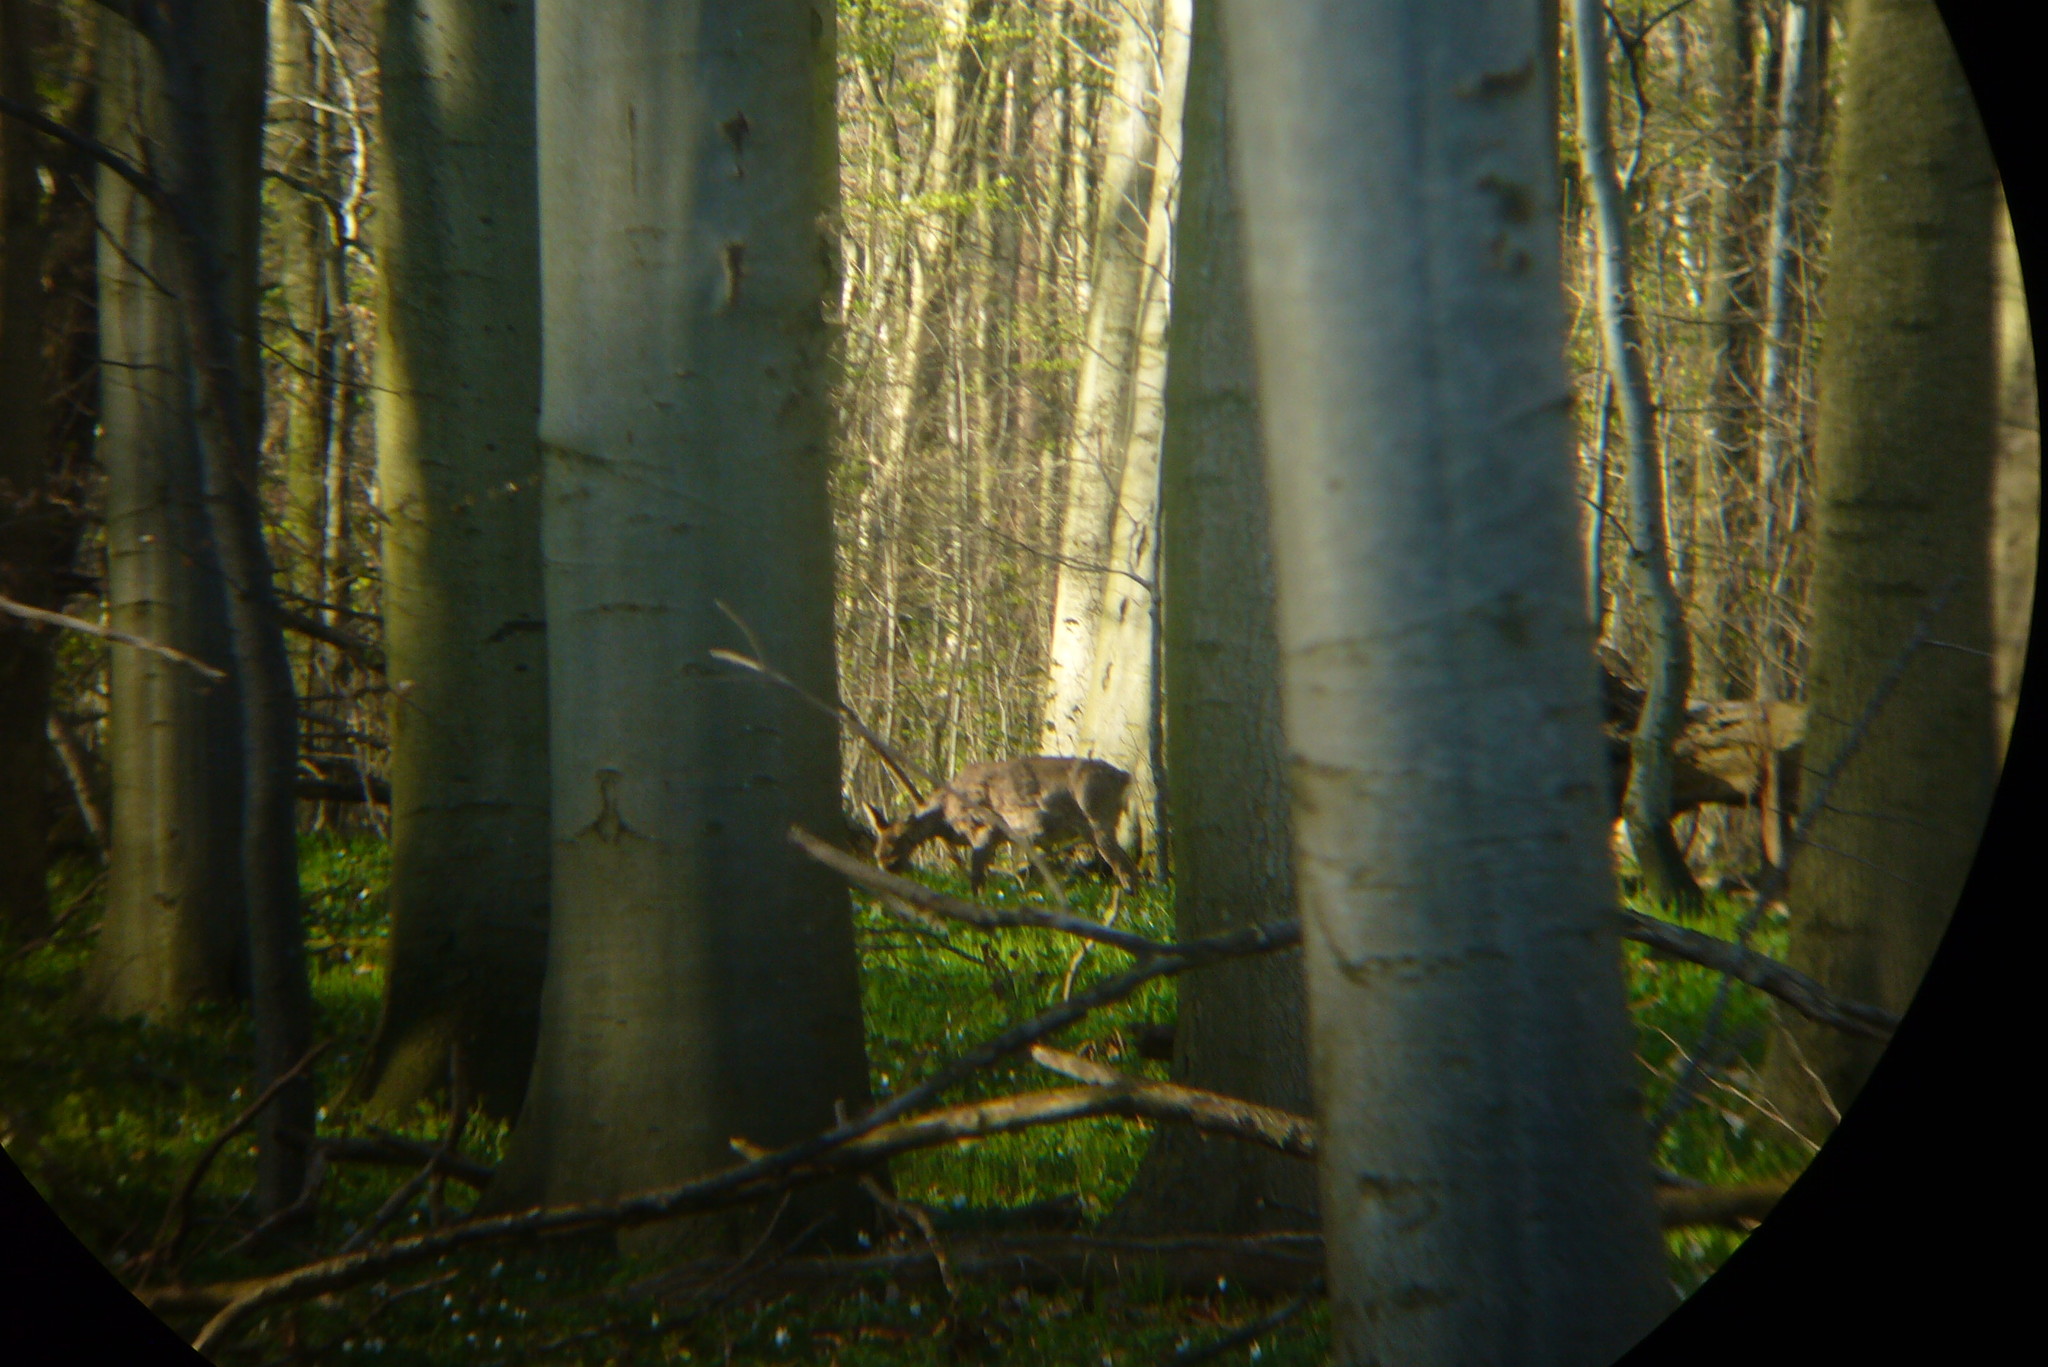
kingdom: Animalia
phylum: Chordata
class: Mammalia
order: Artiodactyla
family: Cervidae
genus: Capreolus
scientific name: Capreolus capreolus
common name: Western roe deer
